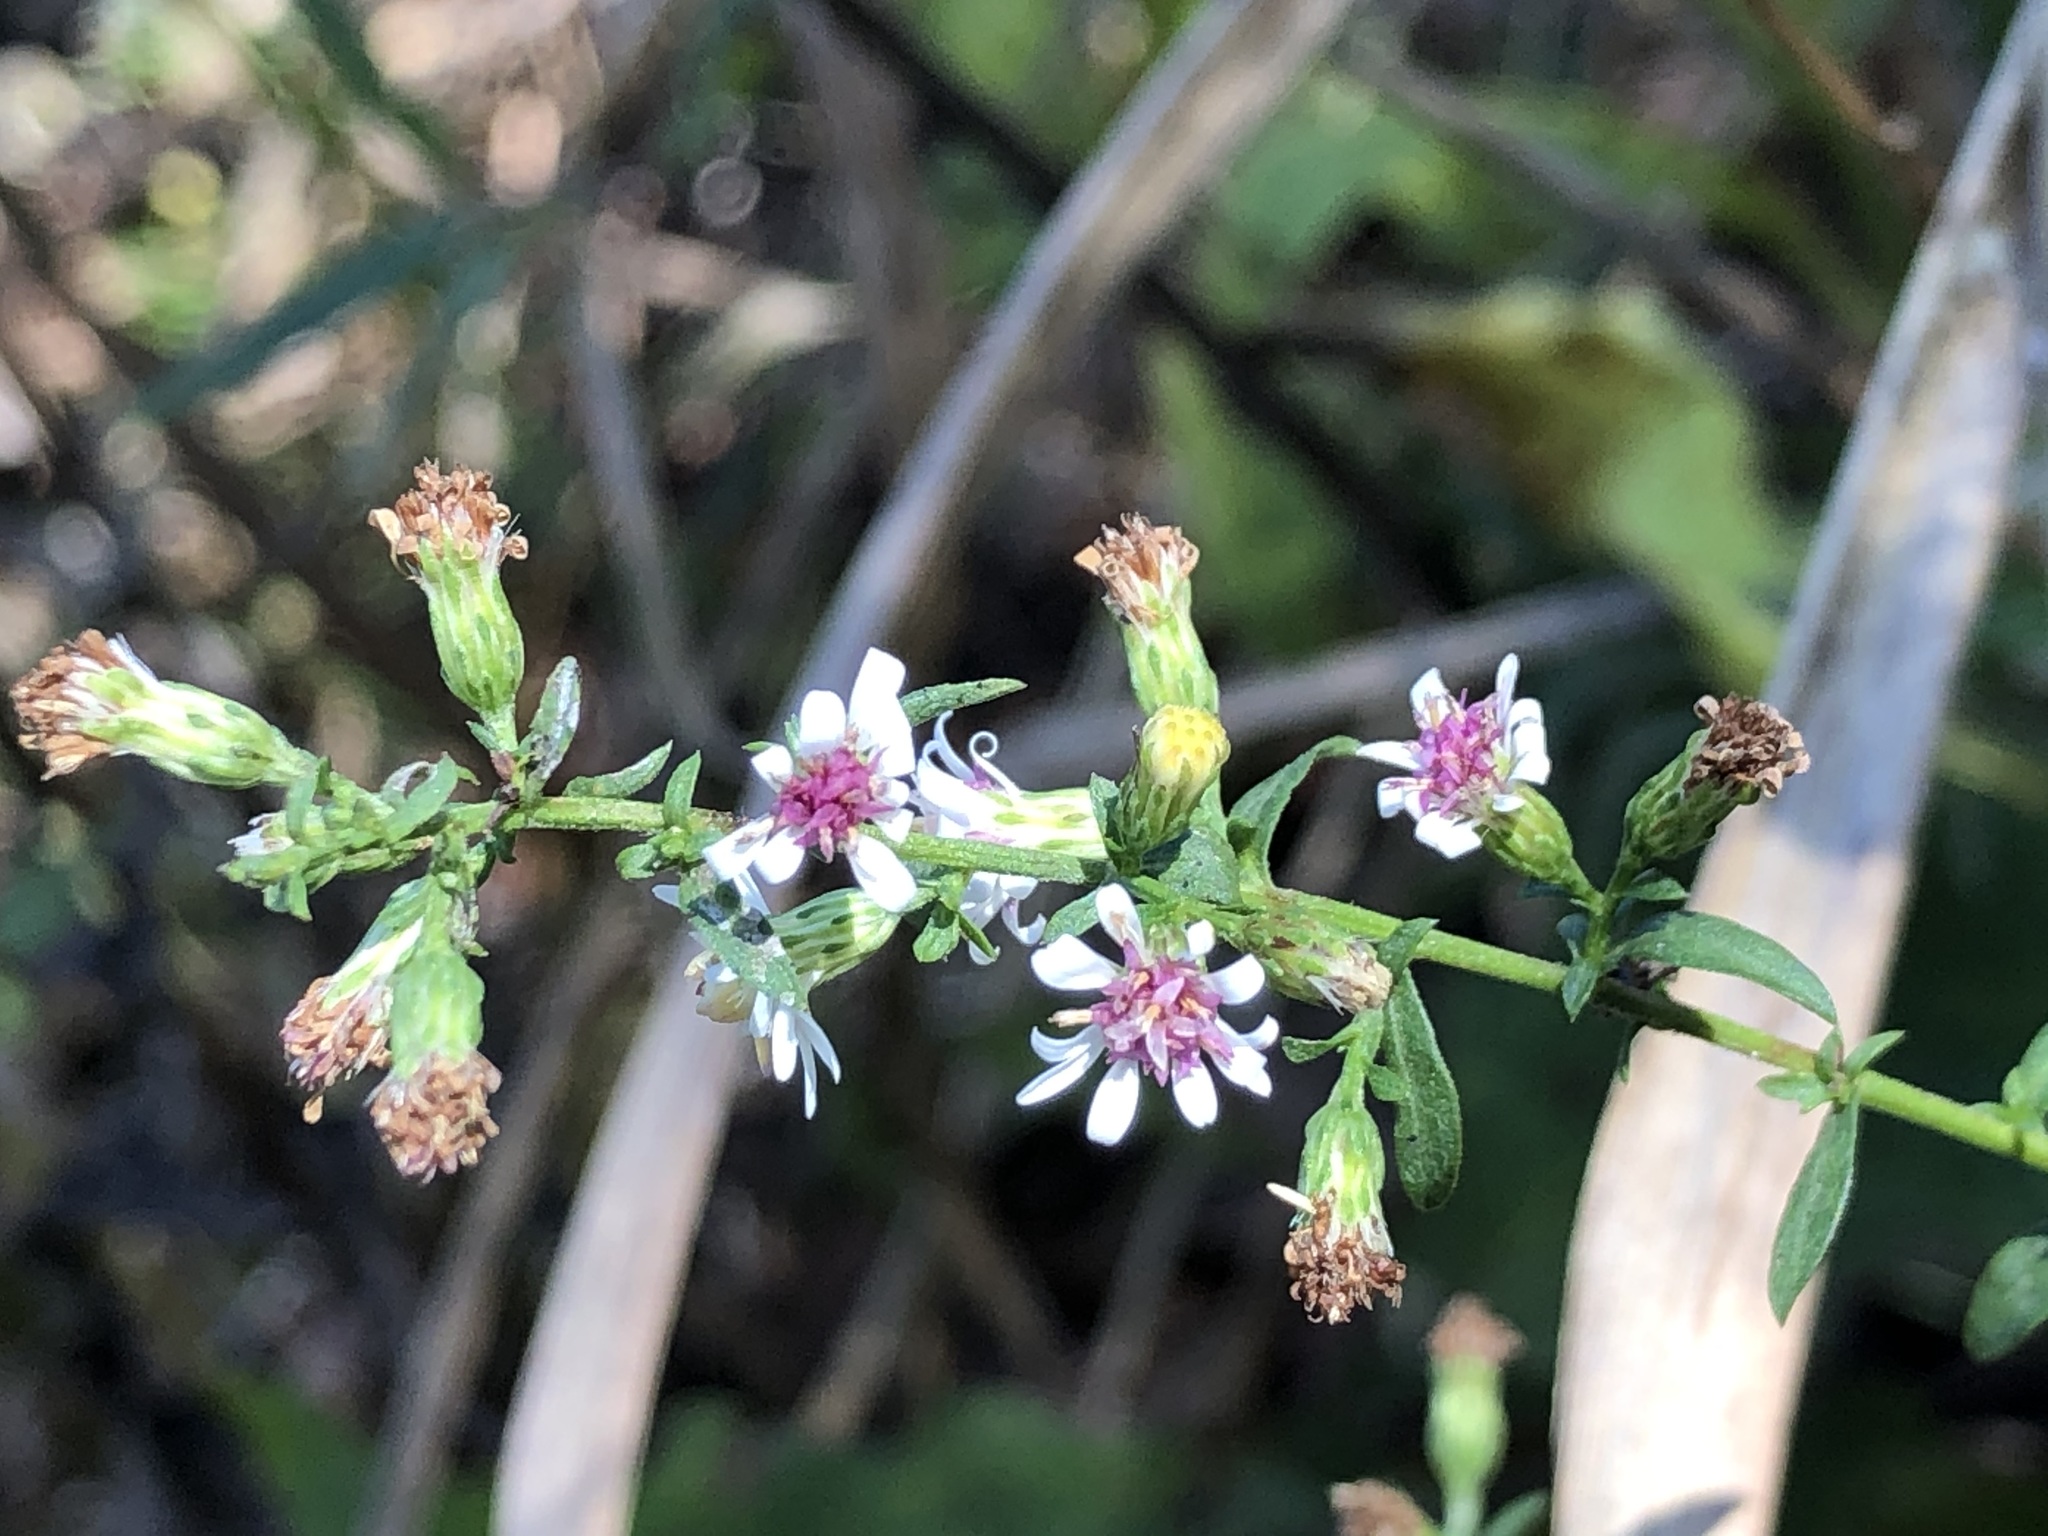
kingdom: Plantae
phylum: Tracheophyta
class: Magnoliopsida
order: Asterales
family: Asteraceae
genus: Symphyotrichum
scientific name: Symphyotrichum lateriflorum
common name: Calico aster
